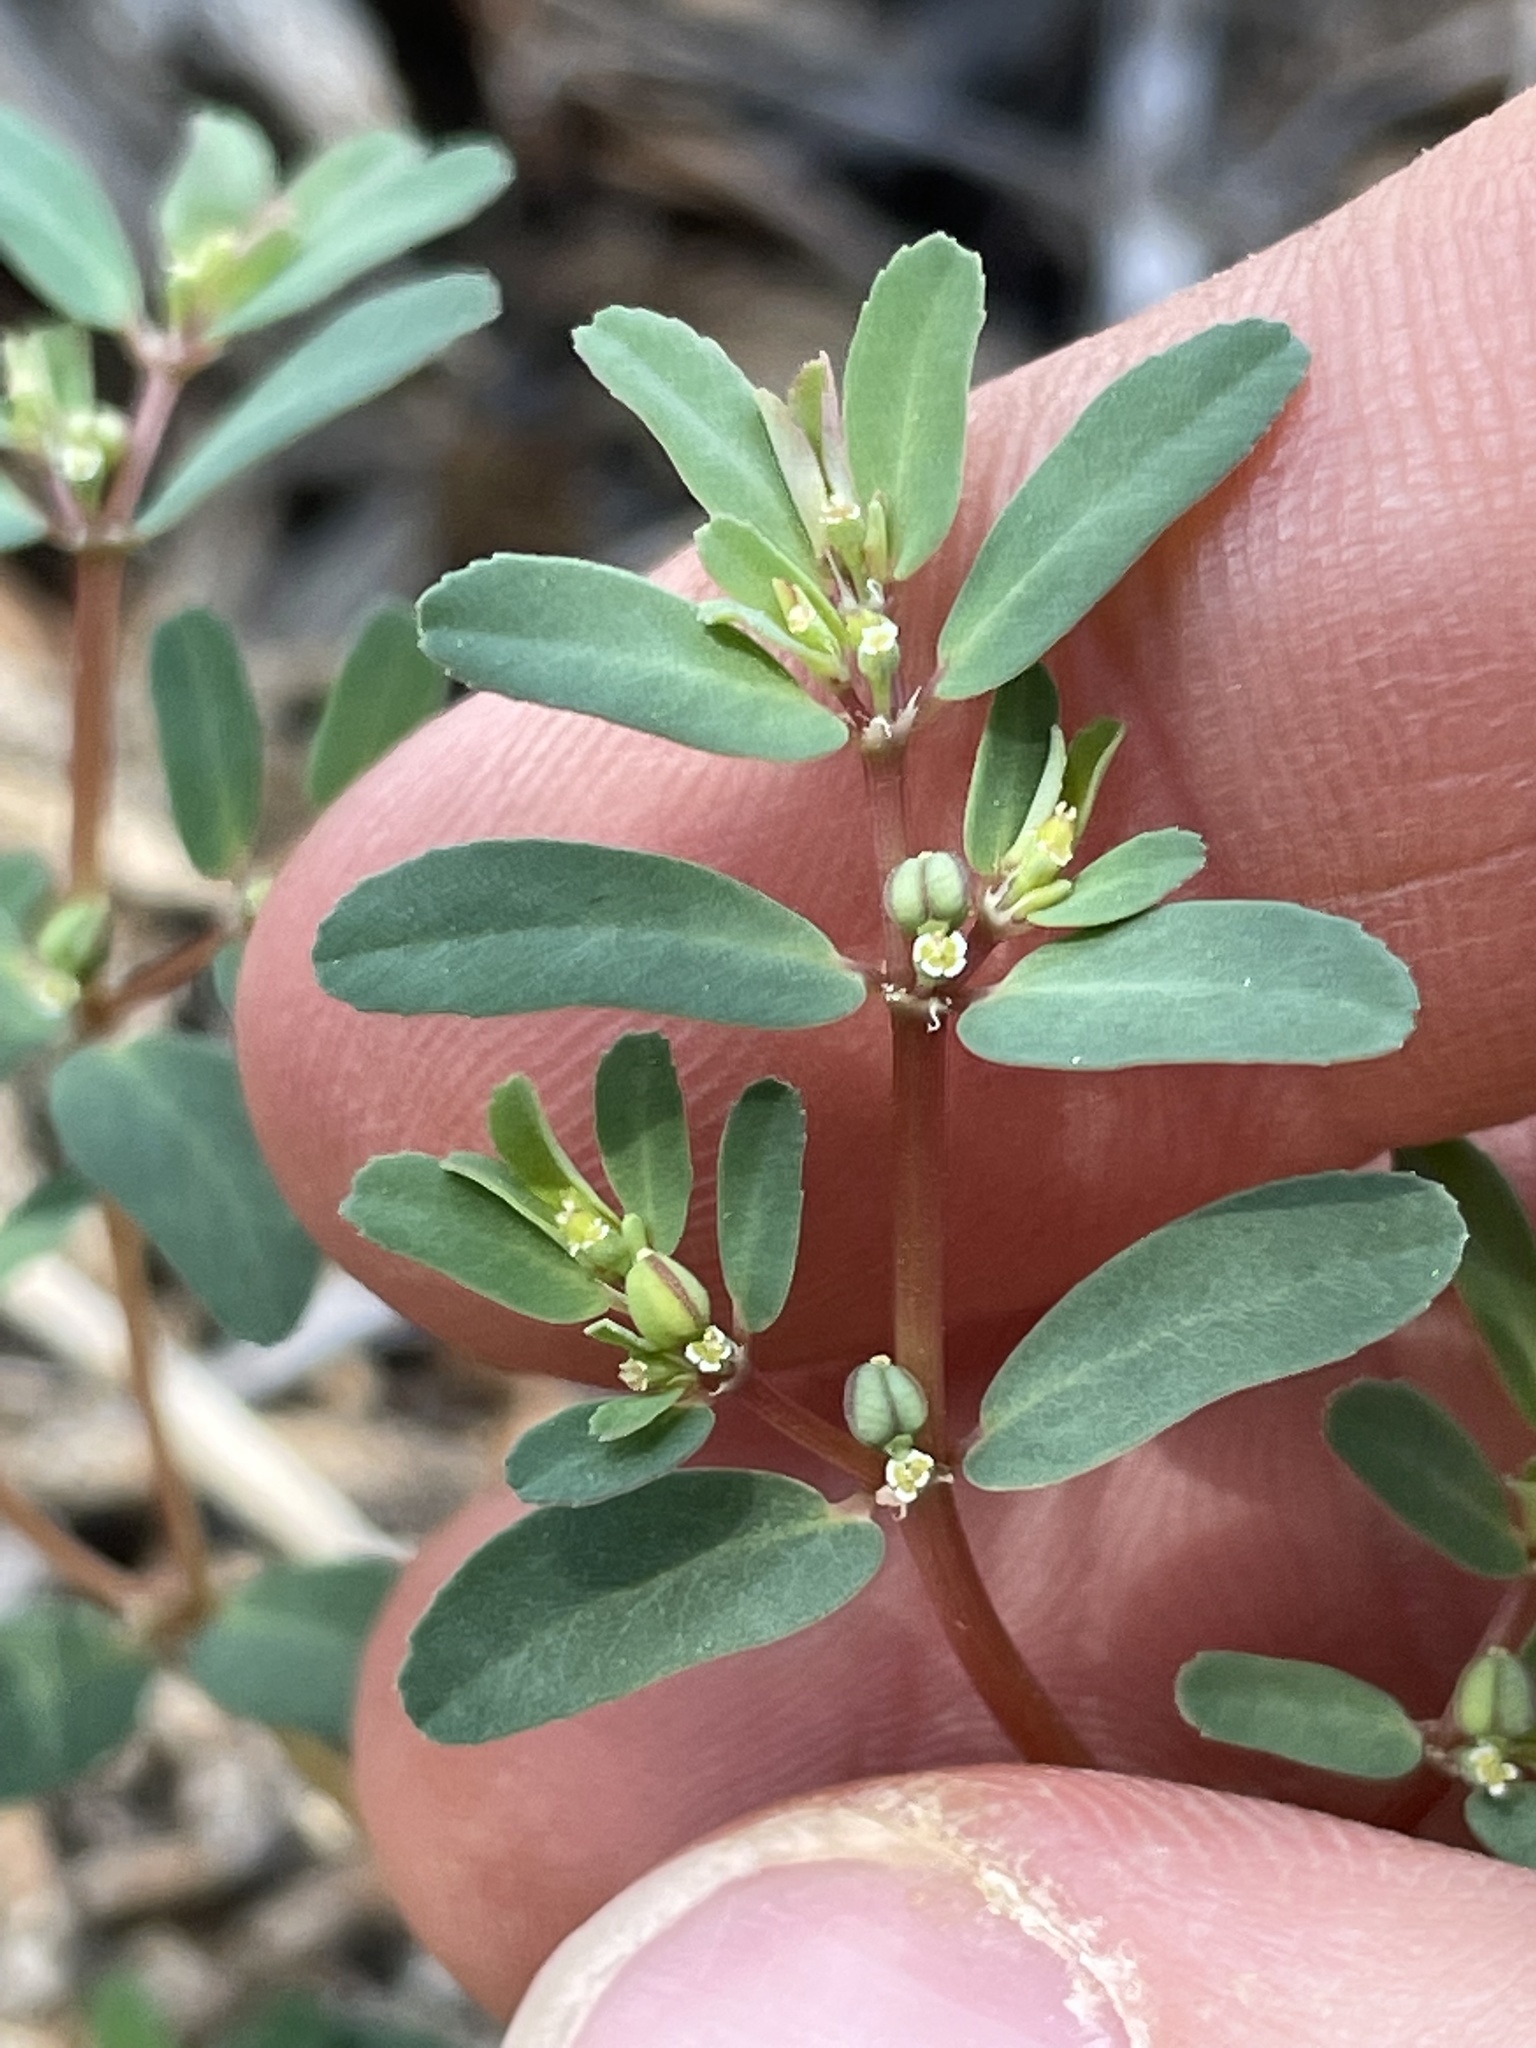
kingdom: Plantae
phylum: Tracheophyta
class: Magnoliopsida
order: Malpighiales
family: Euphorbiaceae
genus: Euphorbia
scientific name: Euphorbia serpillifolia
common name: Thyme-leaf spurge
